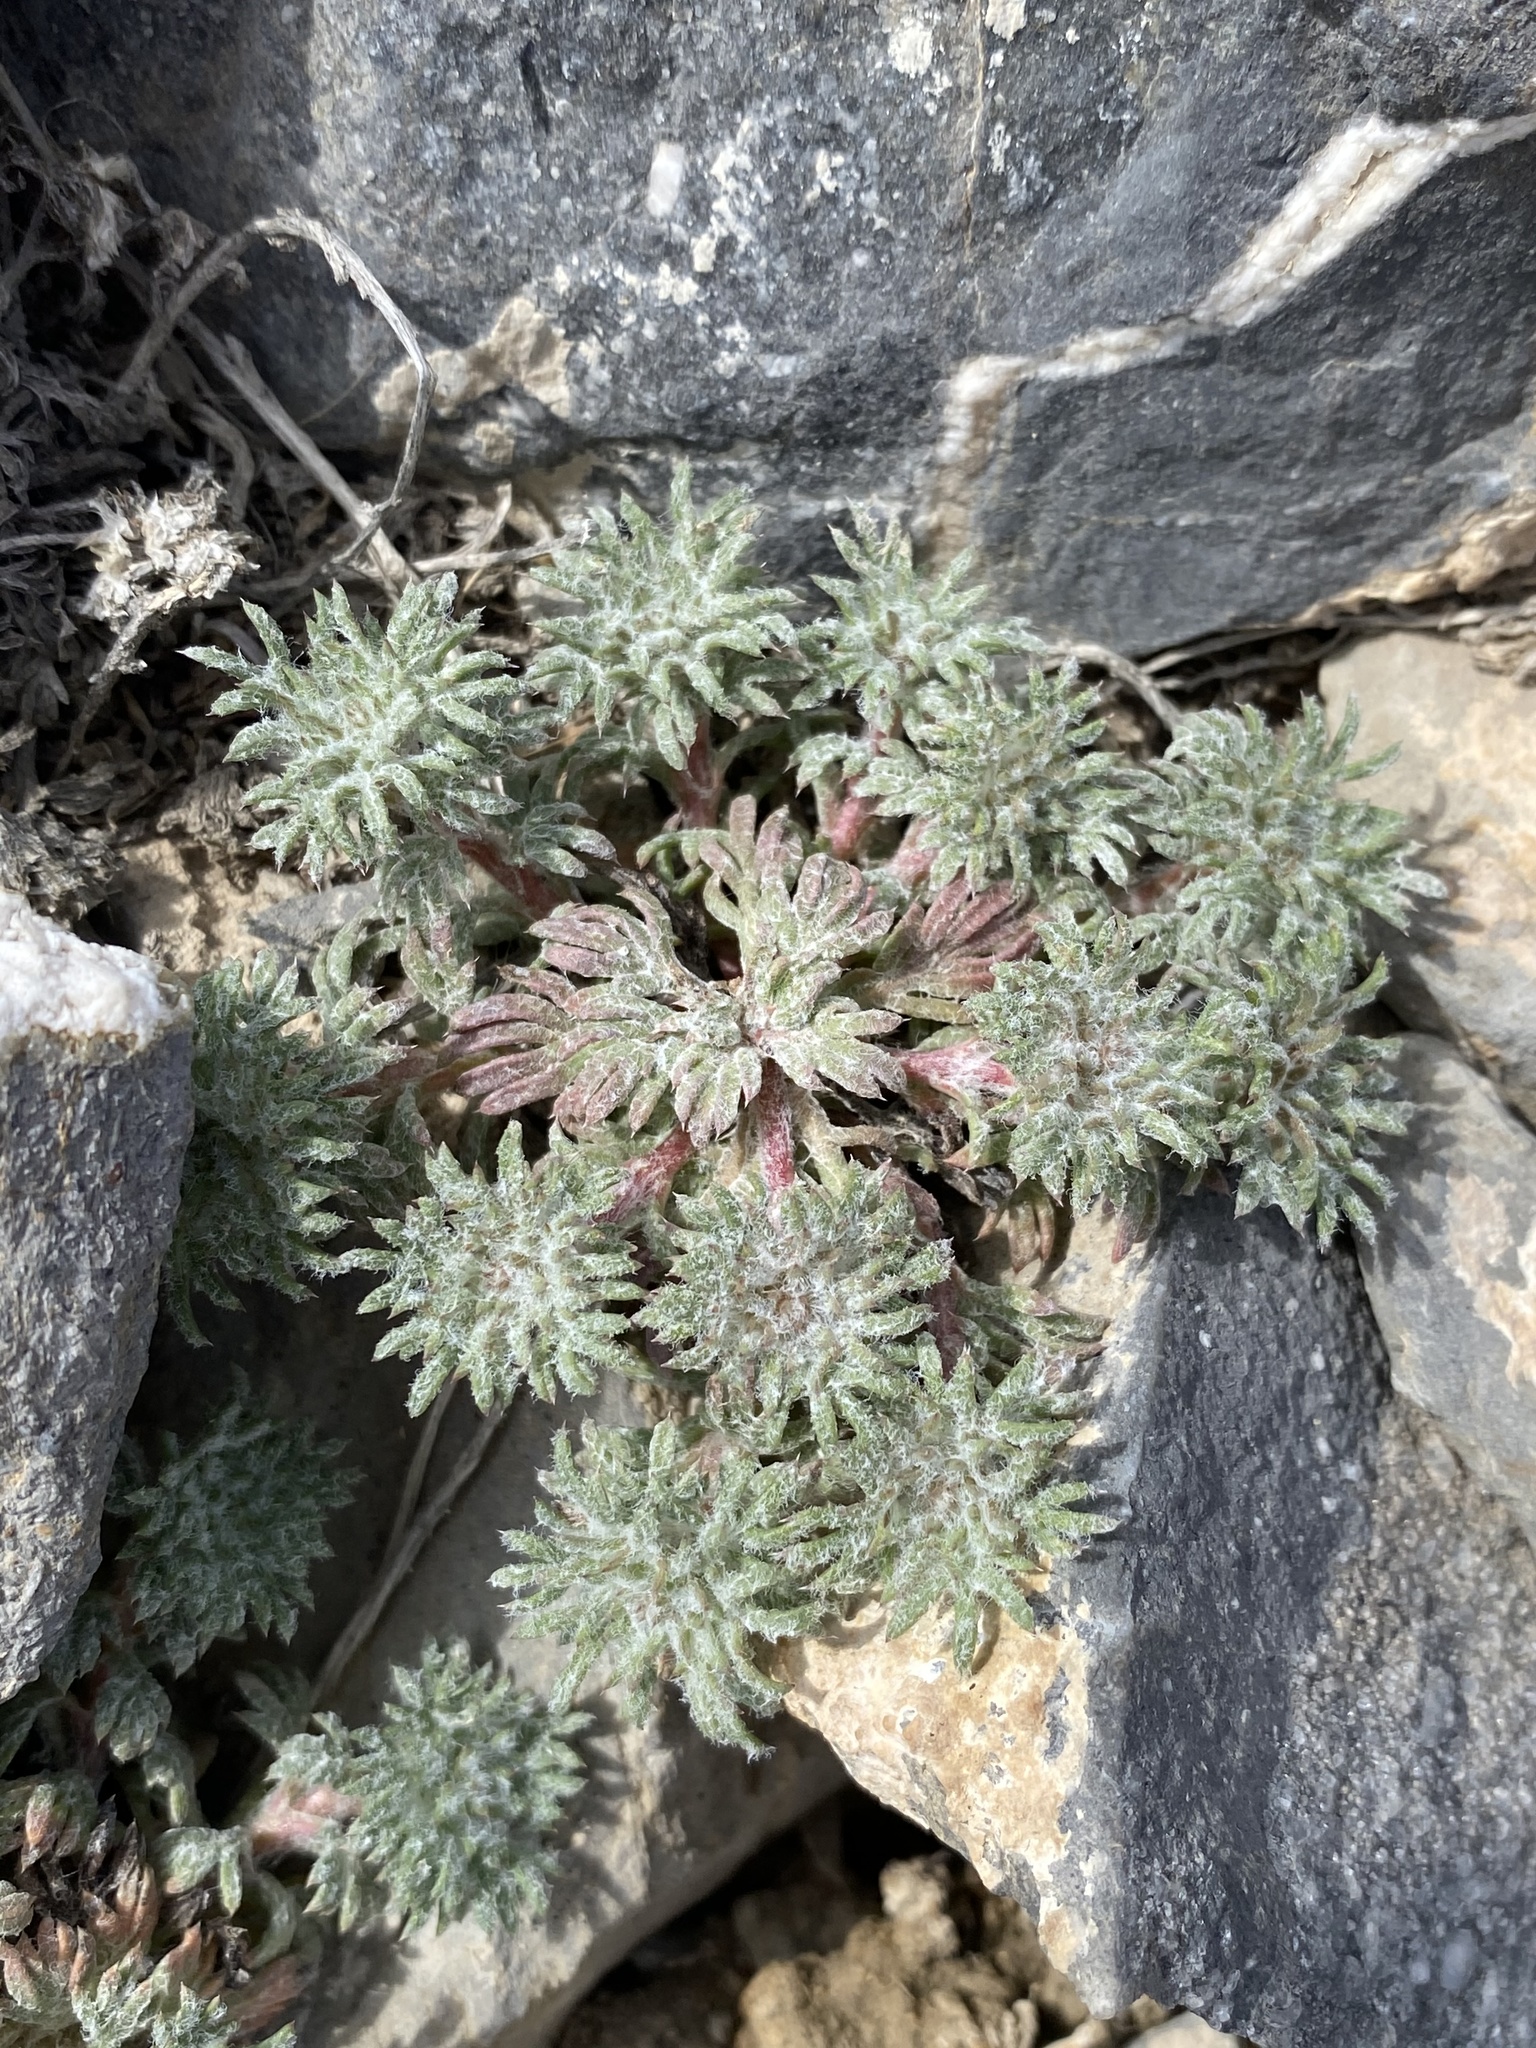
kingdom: Plantae
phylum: Tracheophyta
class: Magnoliopsida
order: Ericales
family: Polemoniaceae
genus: Ipomopsis
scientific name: Ipomopsis congesta
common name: Ball-head gilia
